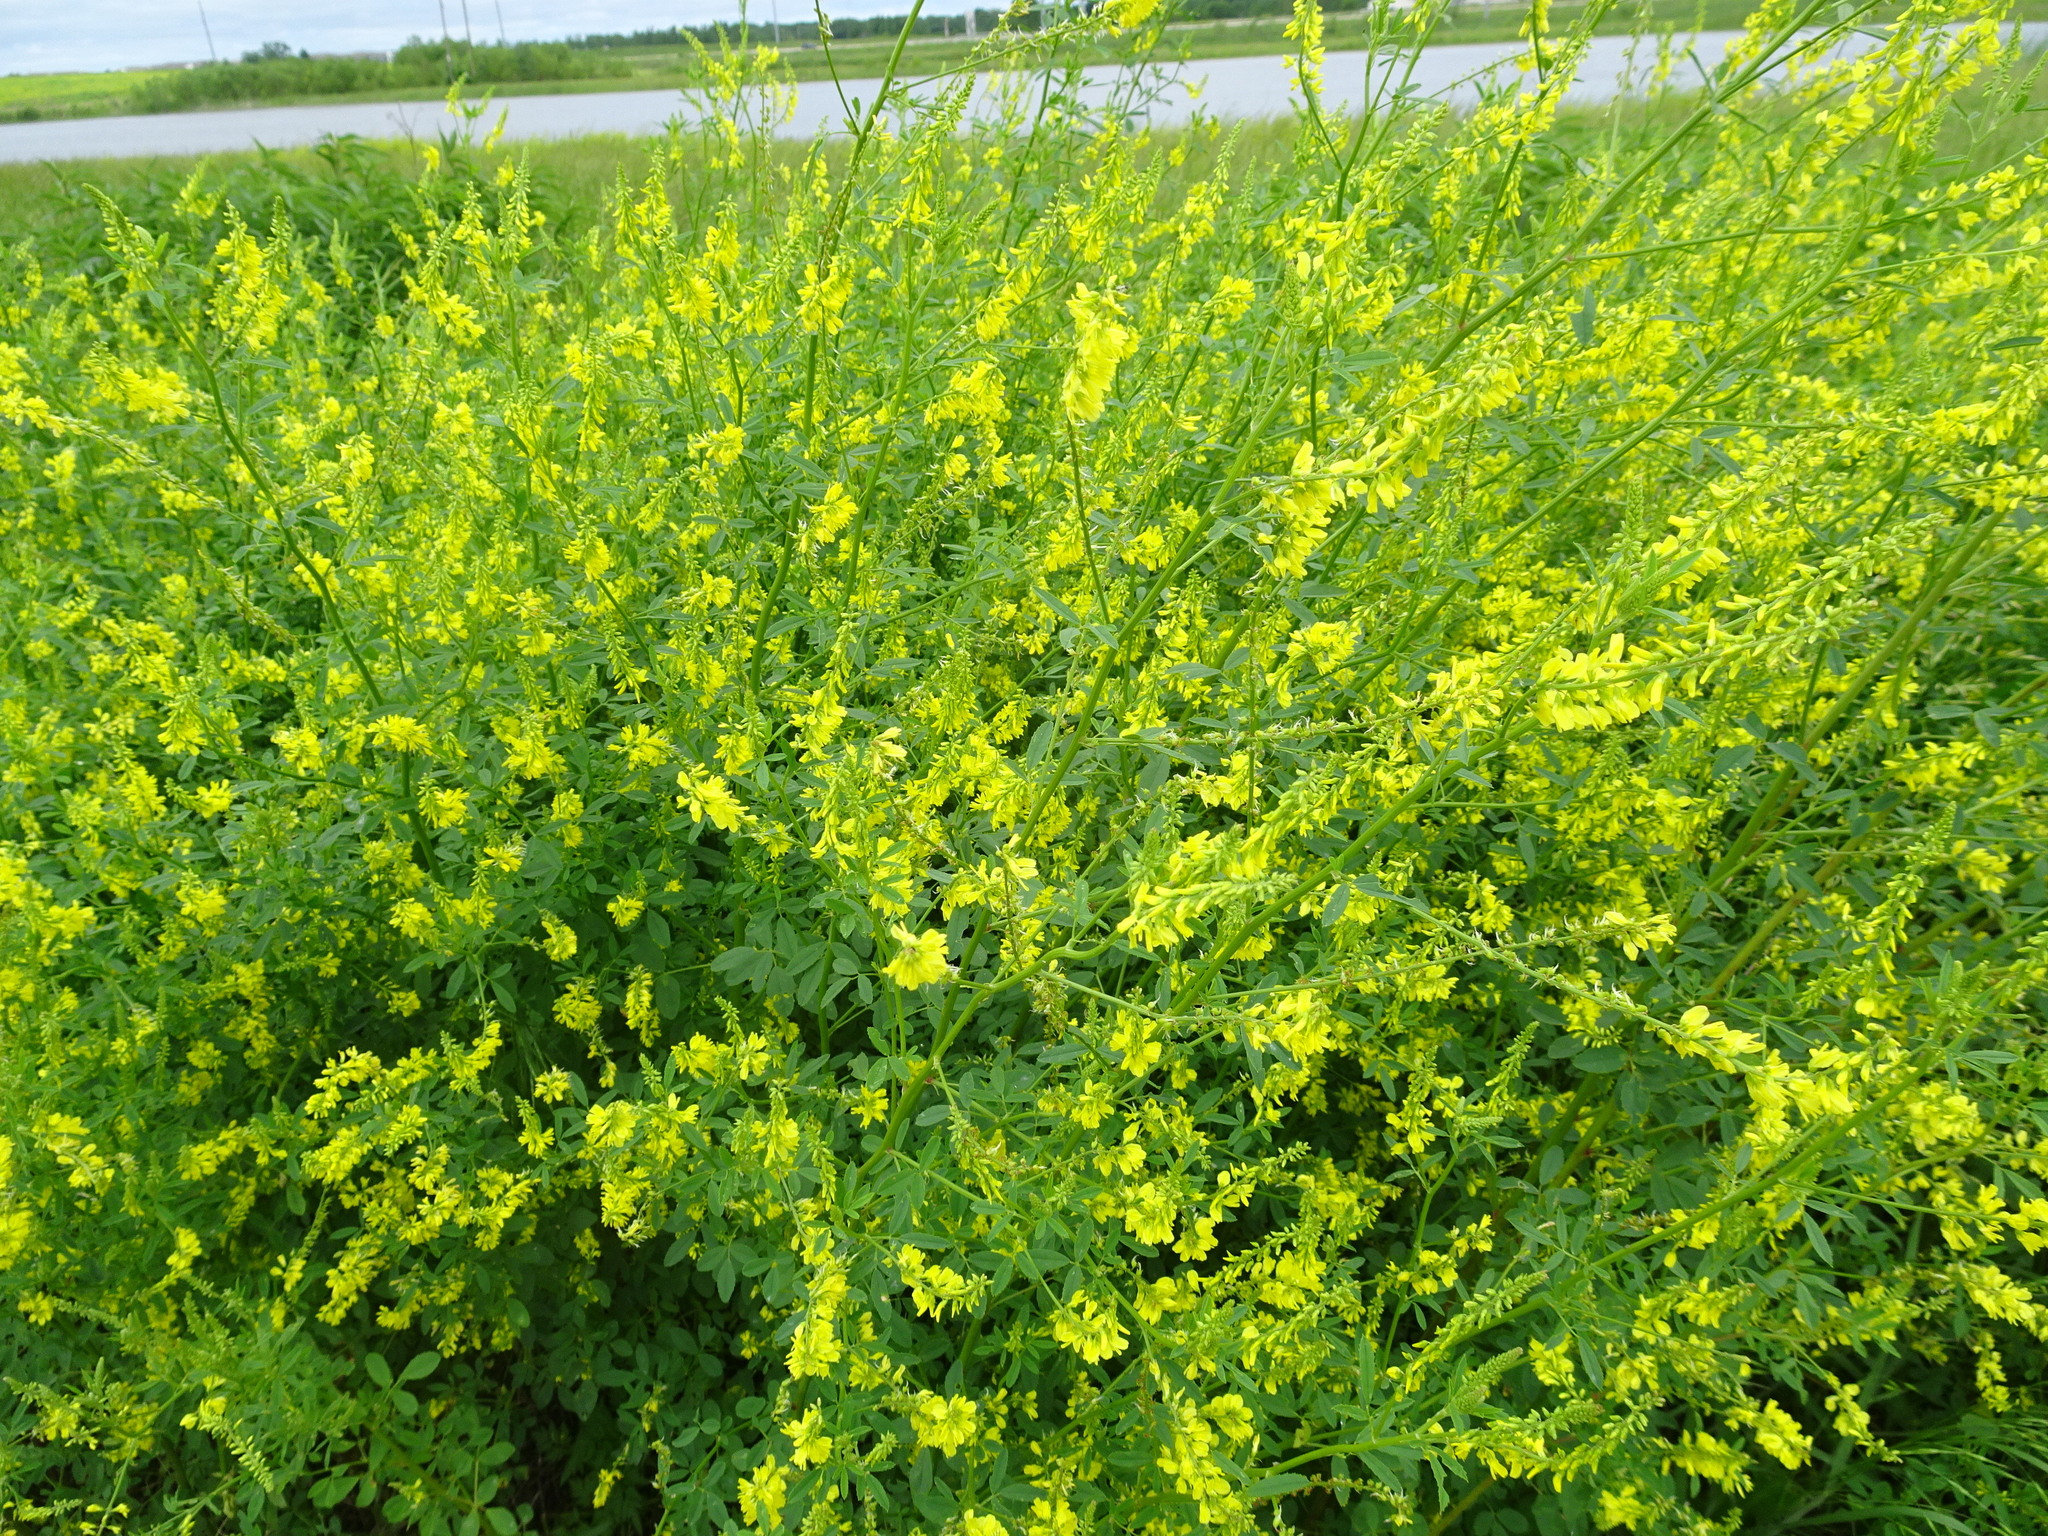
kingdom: Plantae
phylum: Tracheophyta
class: Magnoliopsida
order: Fabales
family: Fabaceae
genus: Melilotus
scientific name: Melilotus officinalis
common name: Sweetclover
